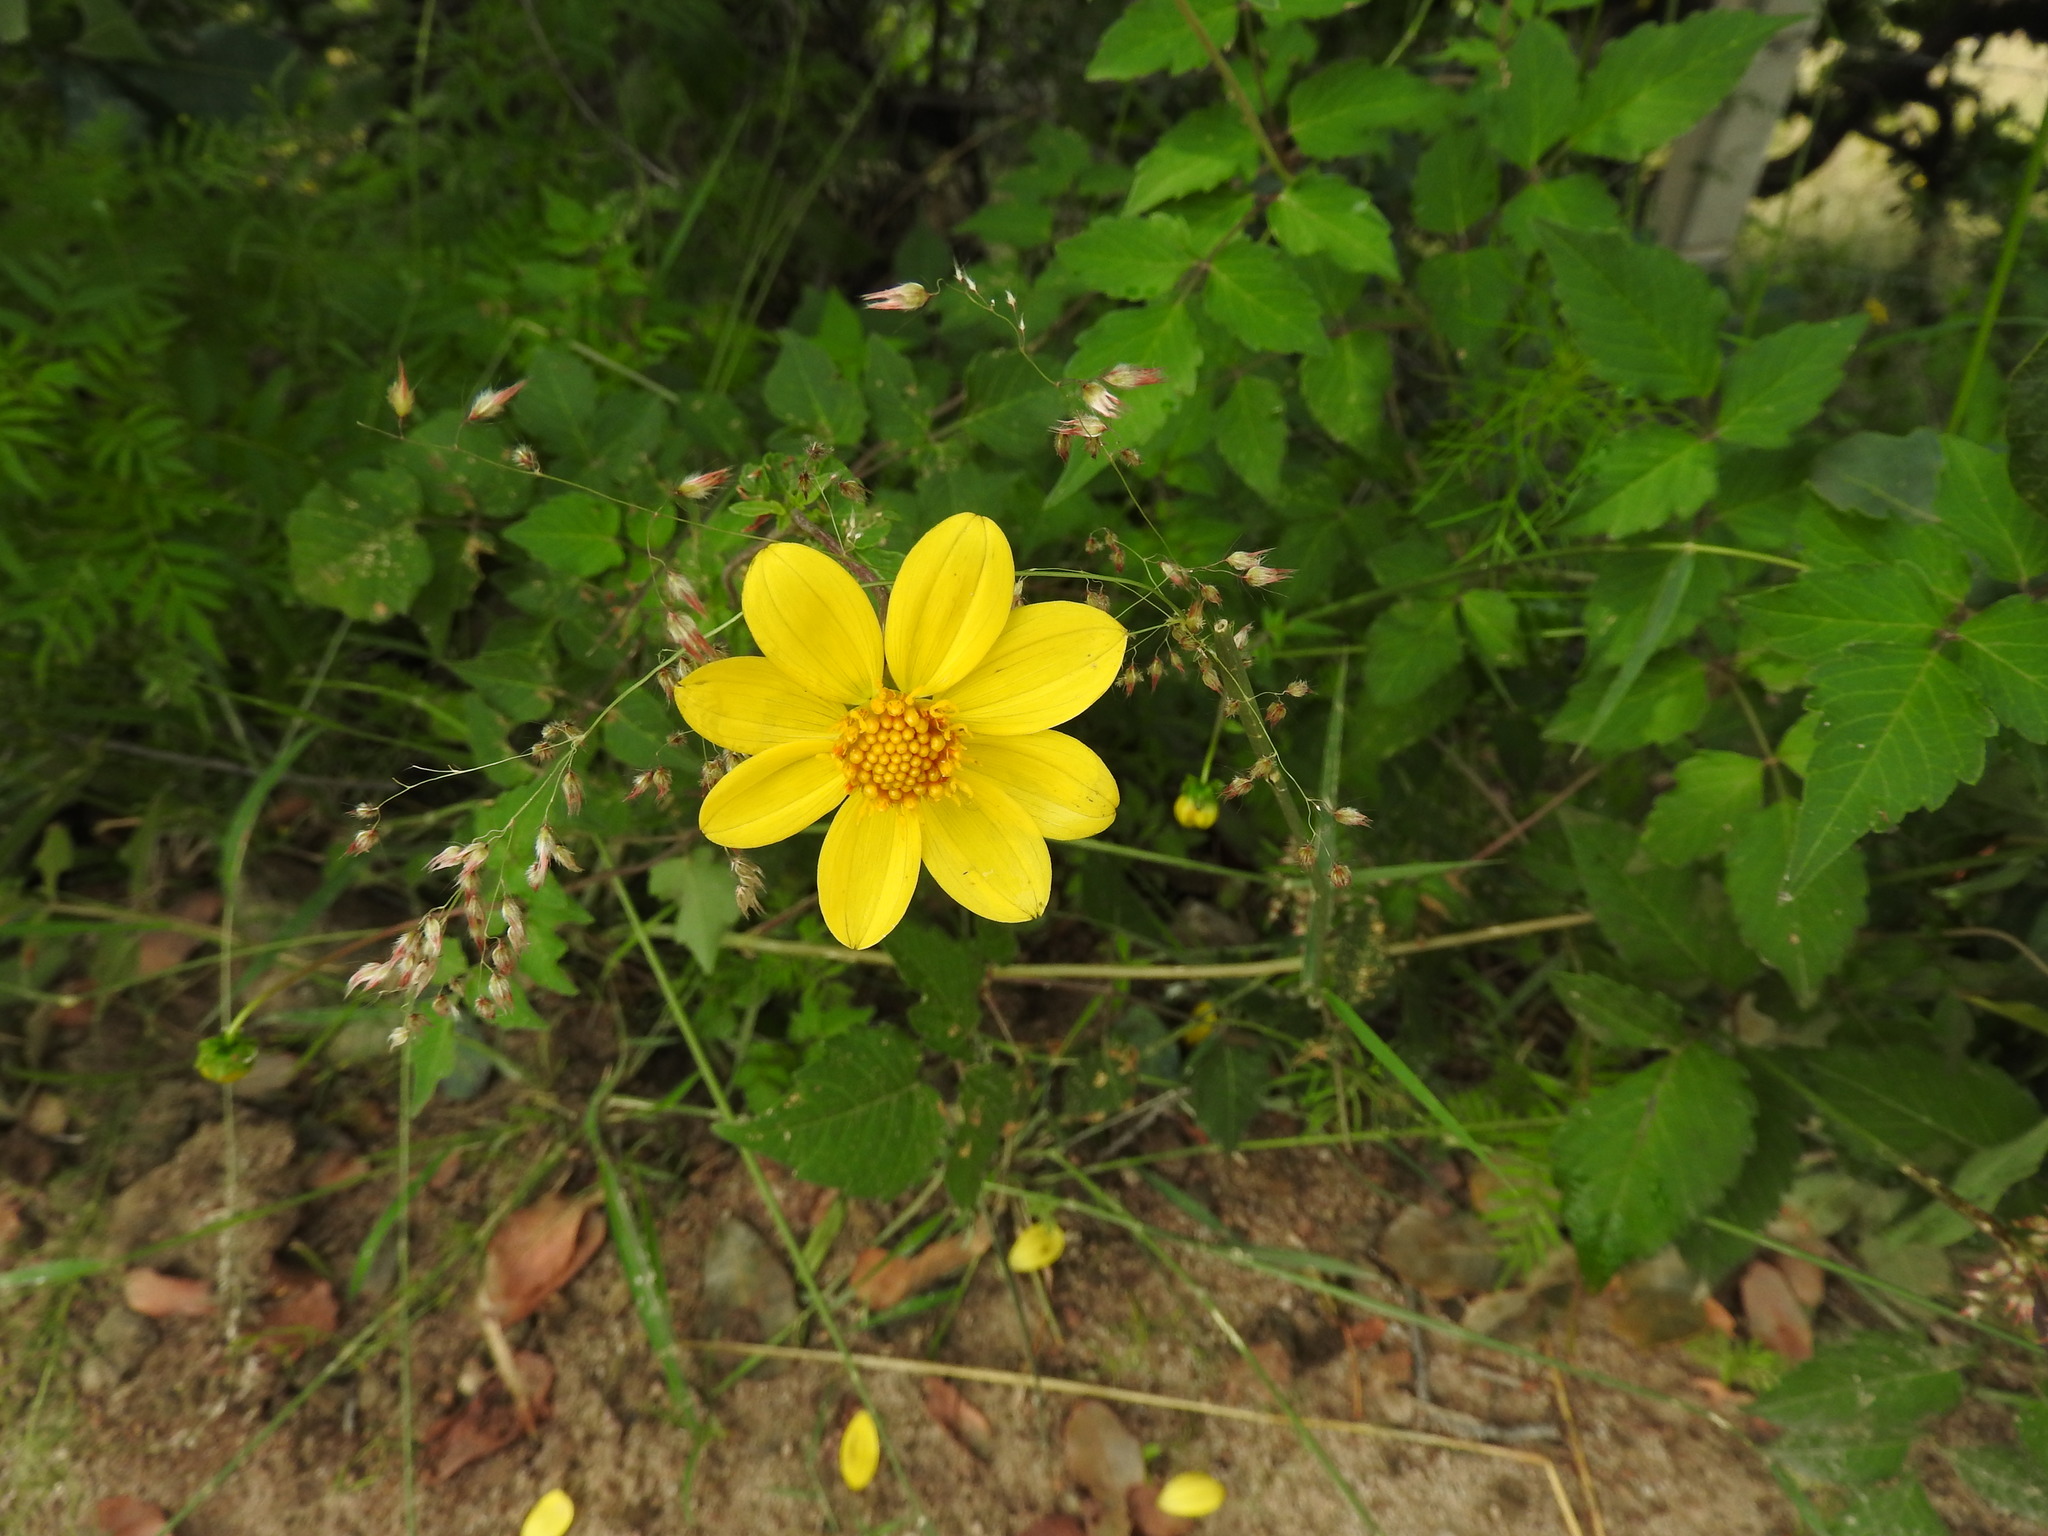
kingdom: Plantae
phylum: Tracheophyta
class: Magnoliopsida
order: Asterales
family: Asteraceae
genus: Dahlia
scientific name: Dahlia coccinea
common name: Red dahlia
